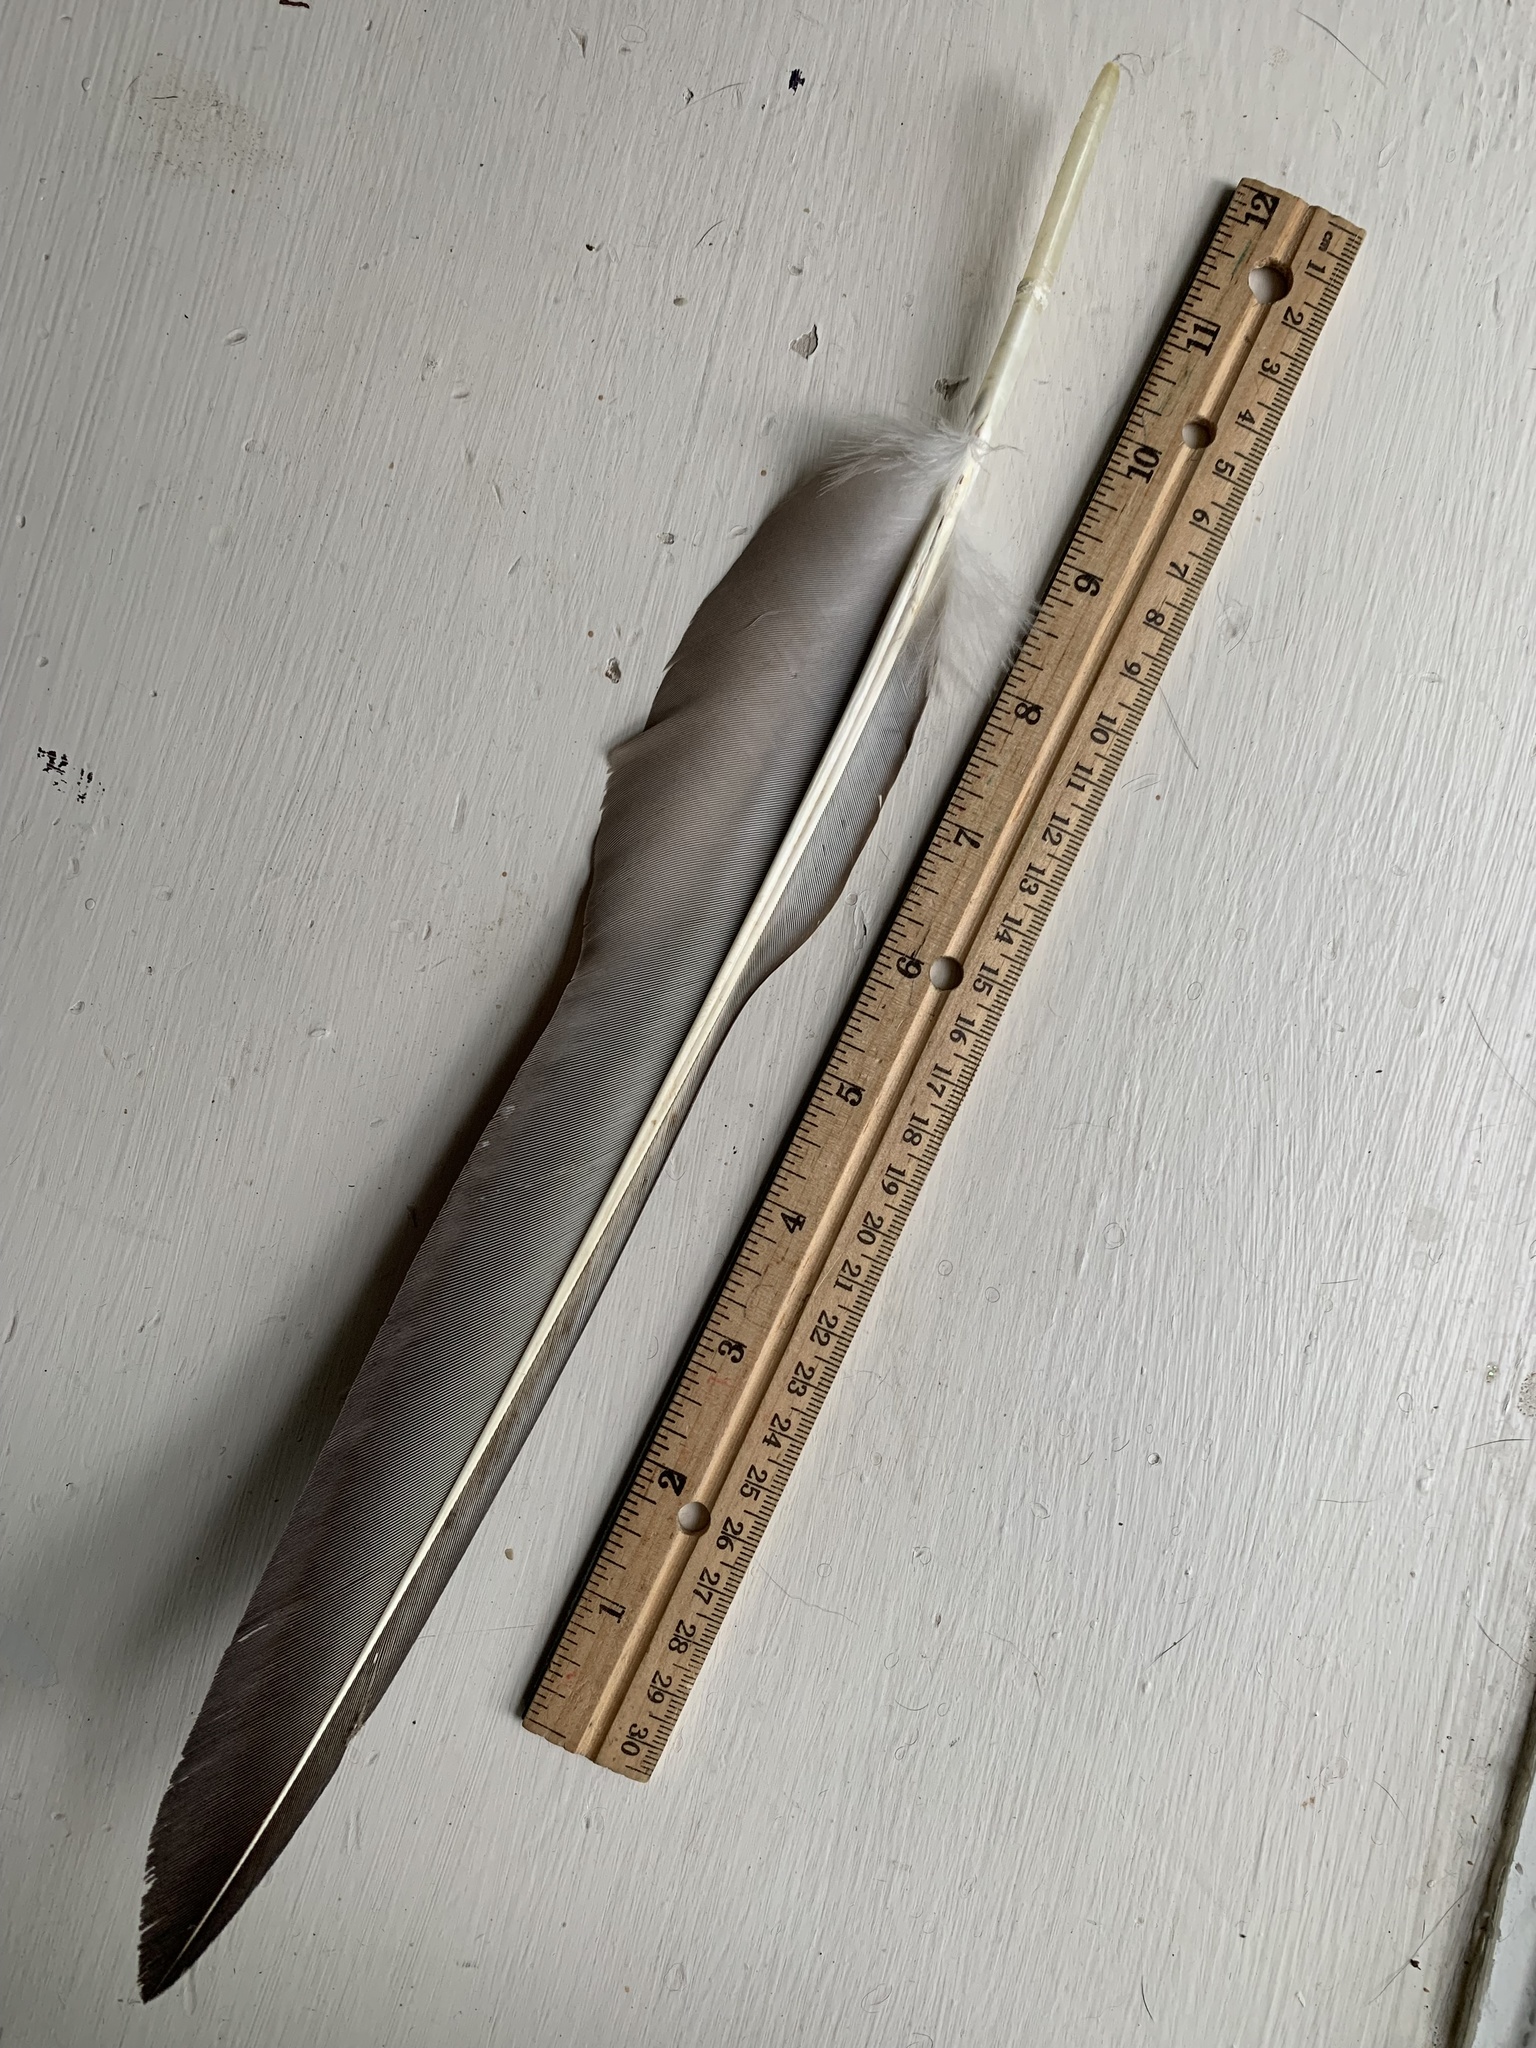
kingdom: Animalia
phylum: Chordata
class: Aves
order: Accipitriformes
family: Cathartidae
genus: Coragyps
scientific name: Coragyps atratus
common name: Black vulture
